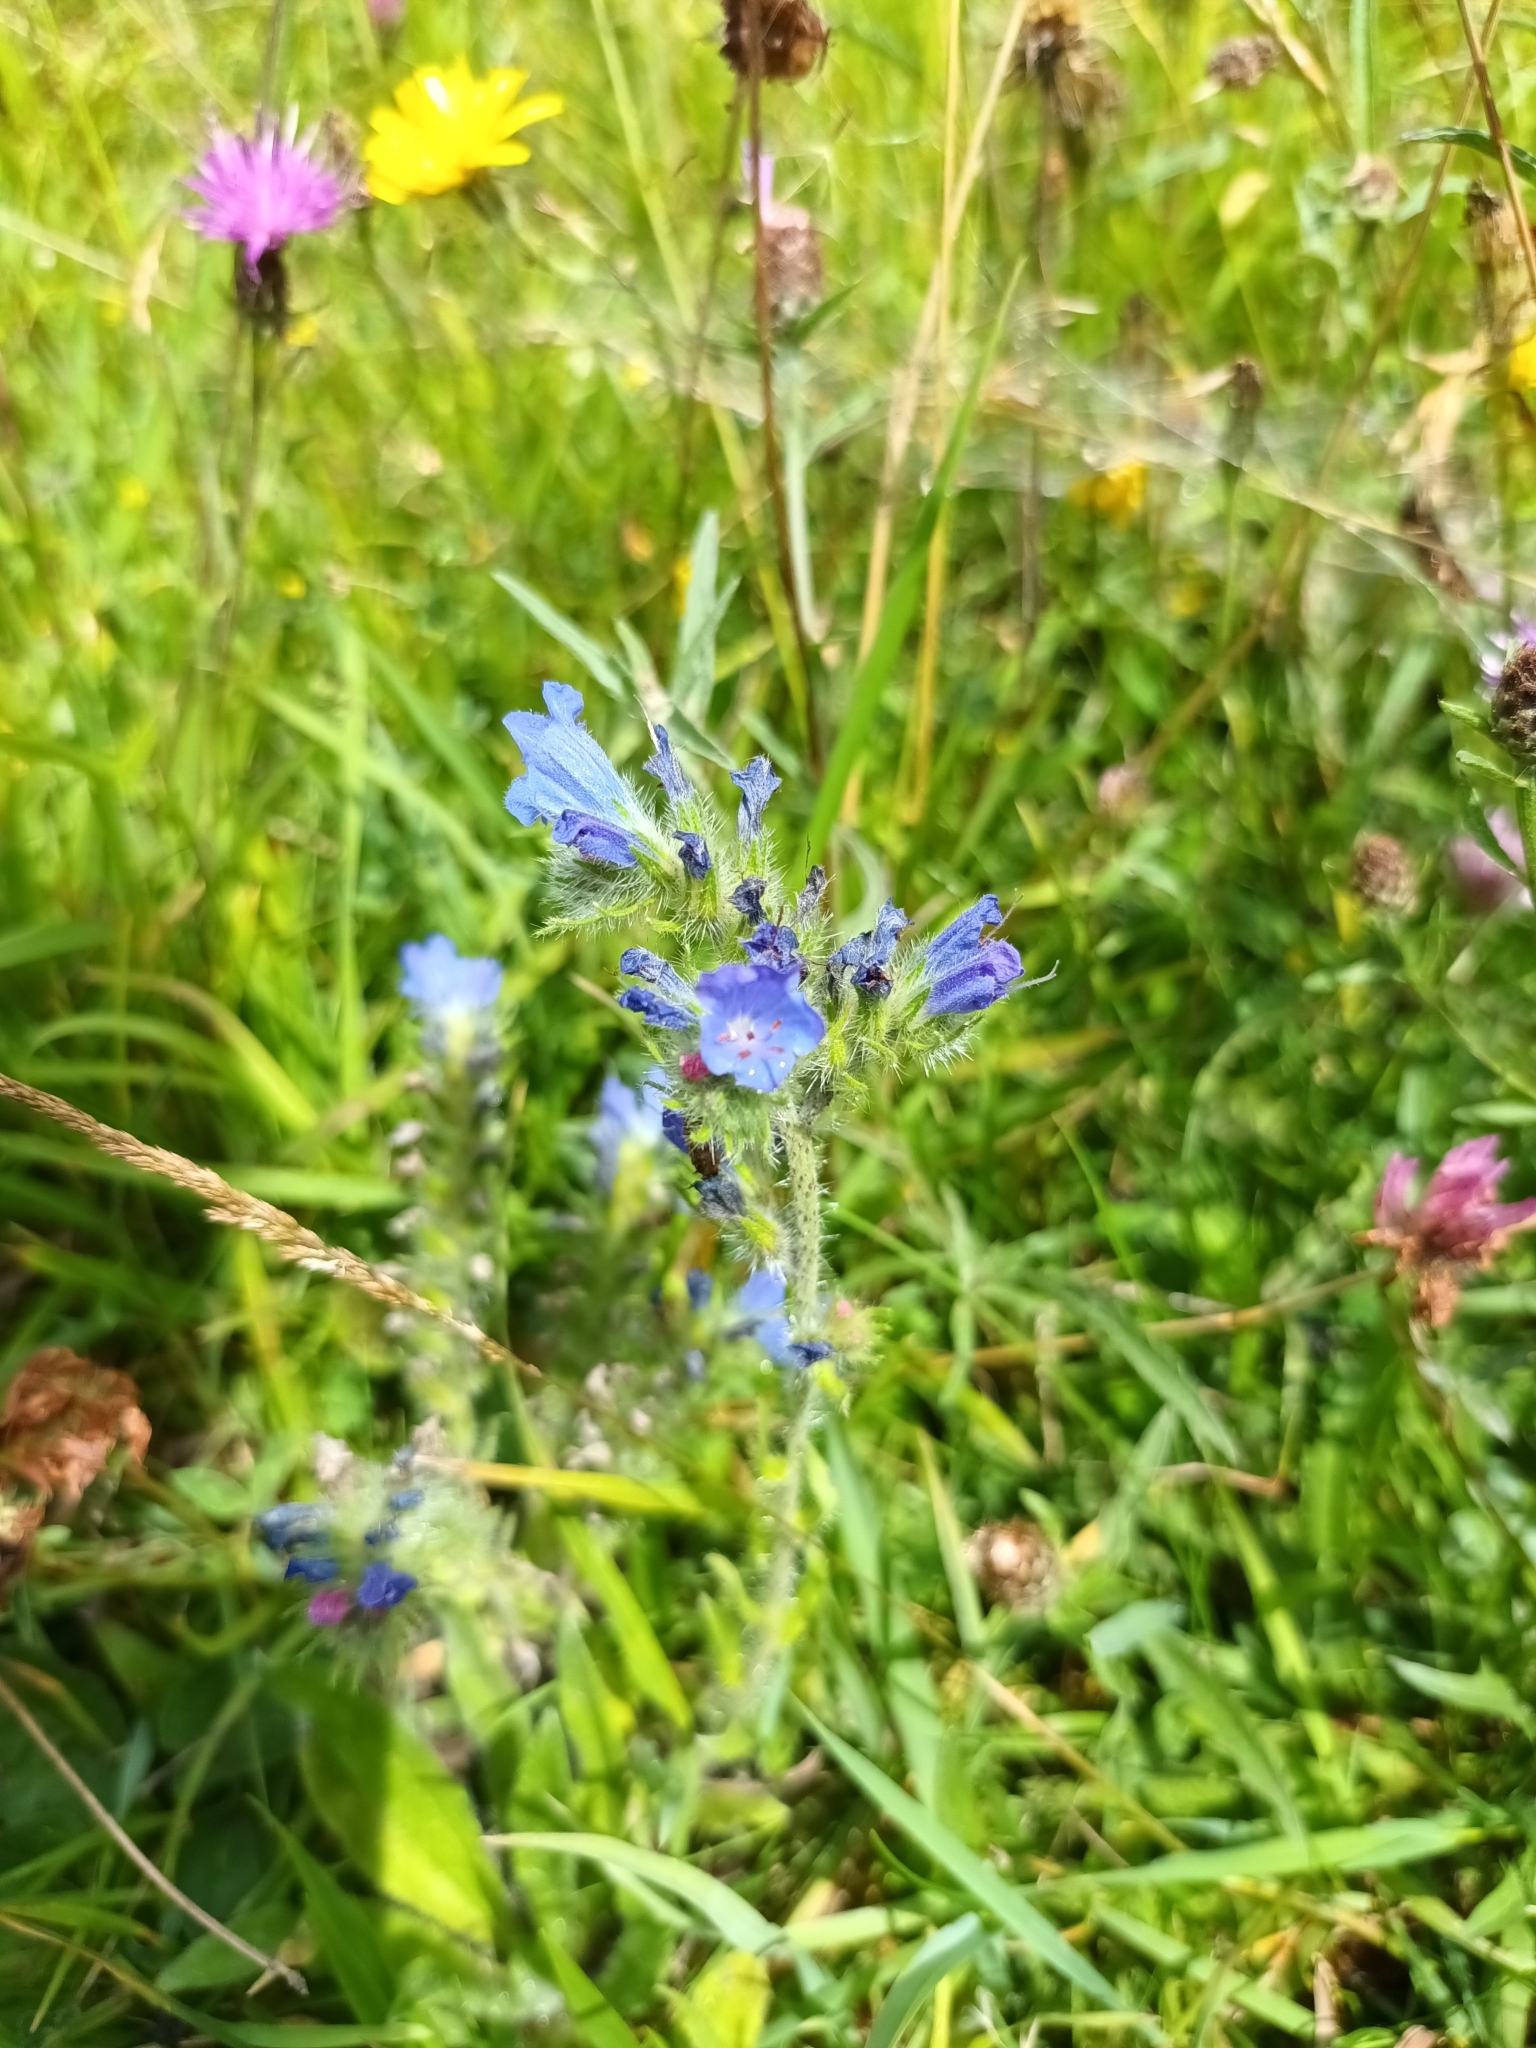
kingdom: Plantae
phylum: Tracheophyta
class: Magnoliopsida
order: Boraginales
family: Boraginaceae
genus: Echium
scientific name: Echium vulgare
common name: Common viper's bugloss
